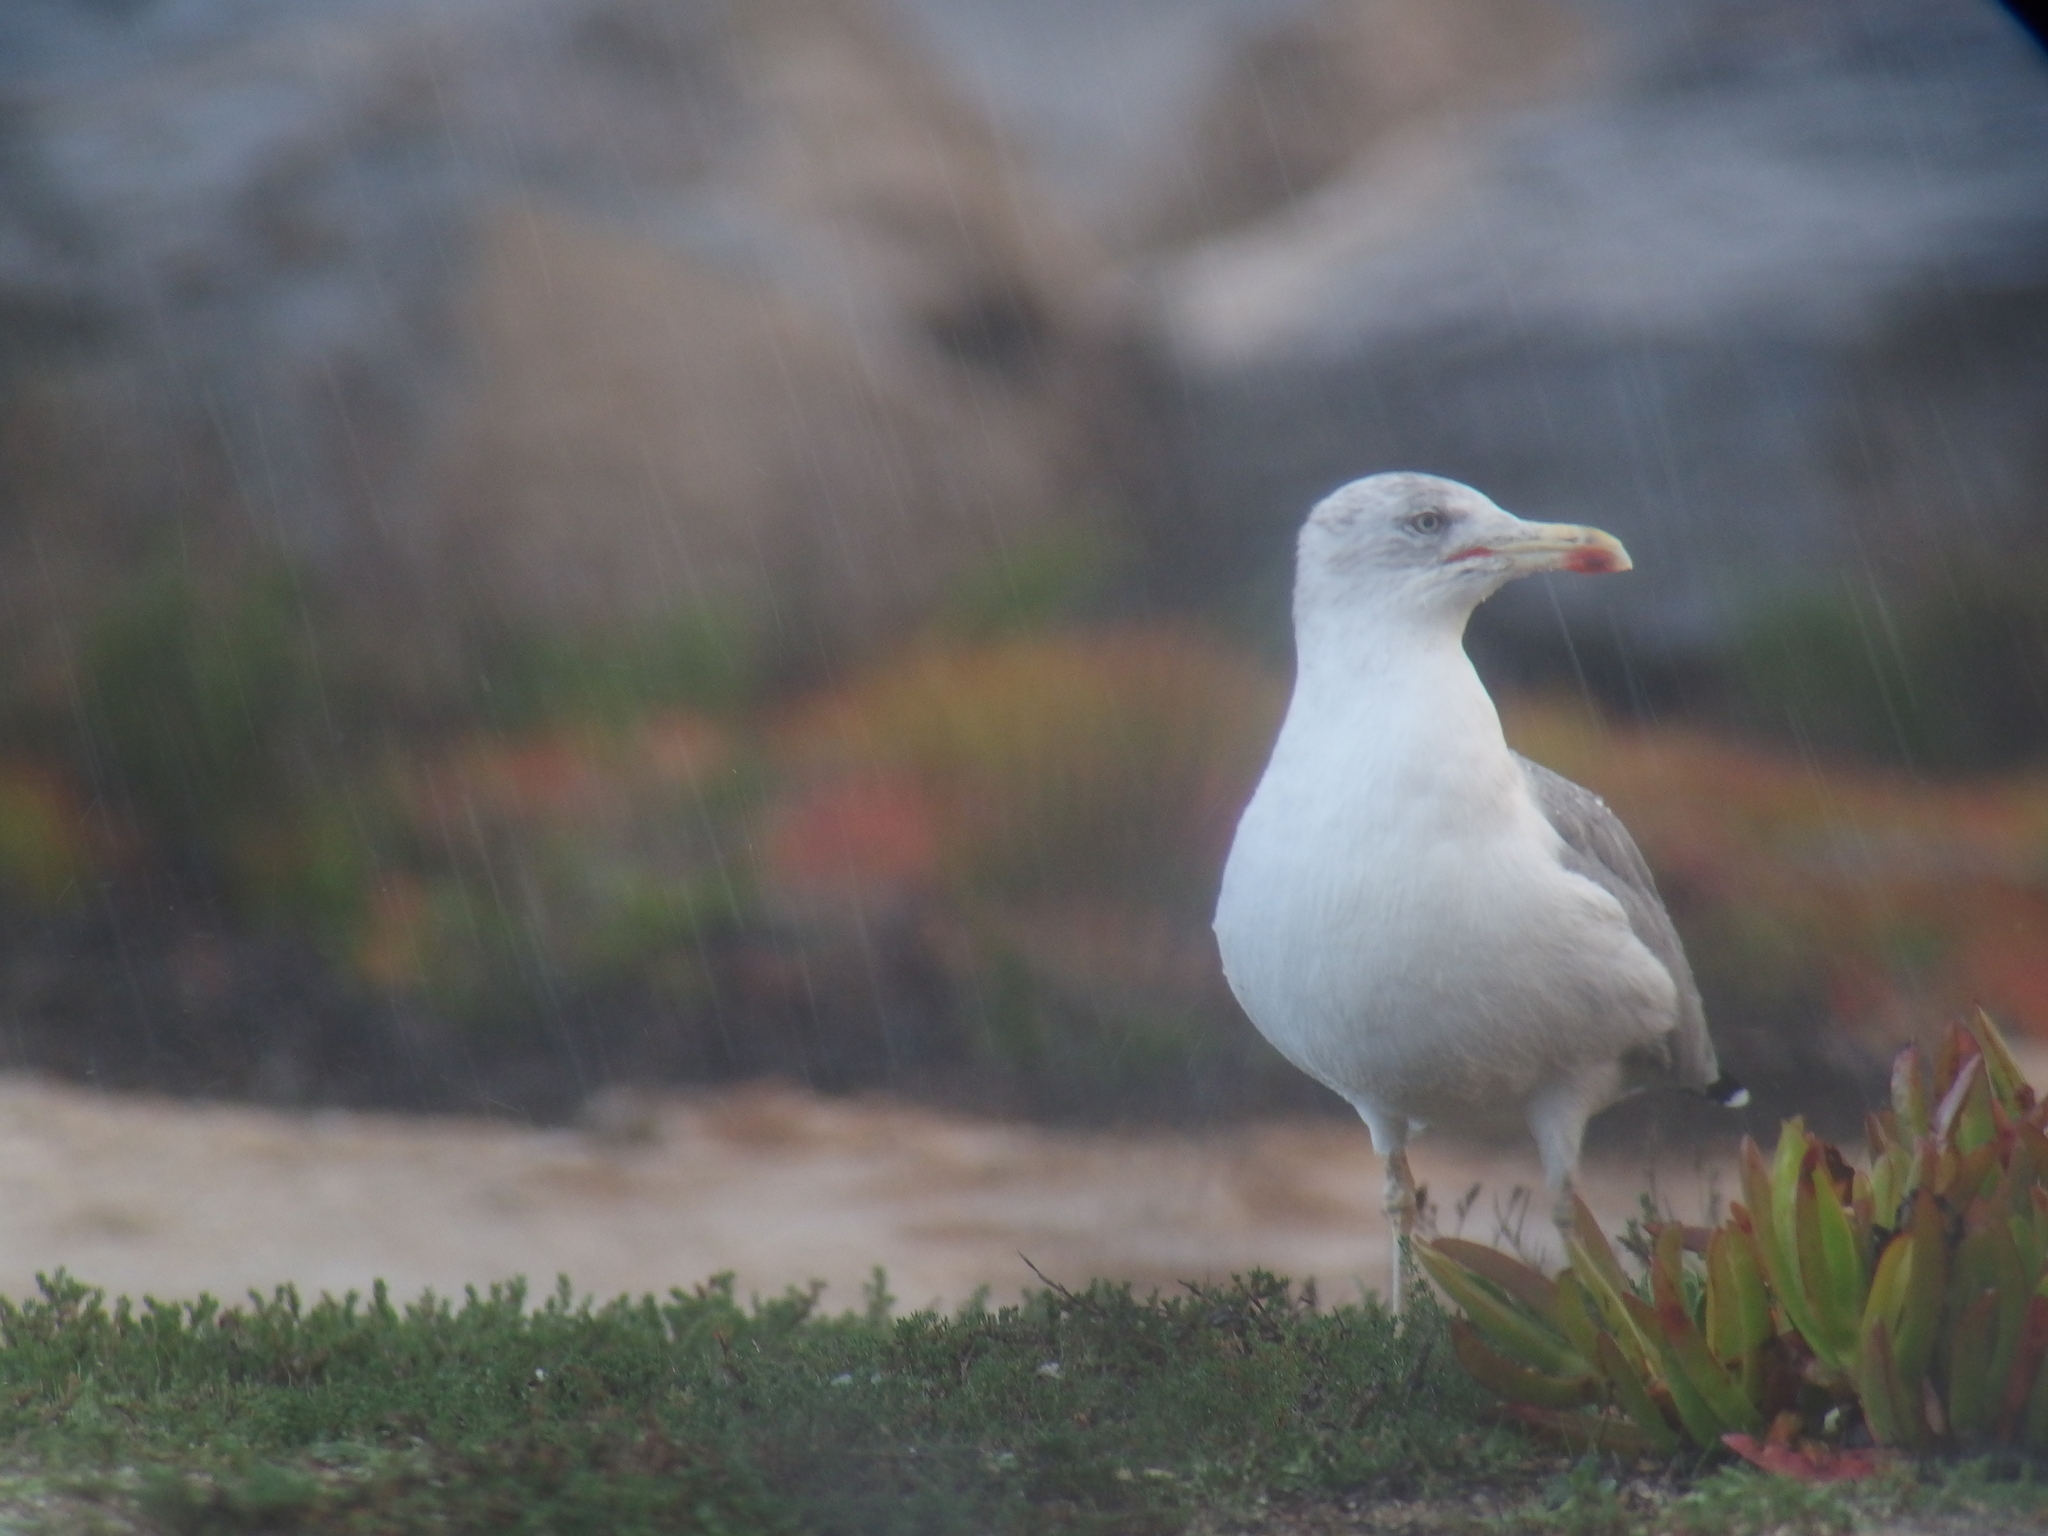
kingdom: Animalia
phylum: Chordata
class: Aves
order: Charadriiformes
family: Laridae
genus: Larus
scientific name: Larus michahellis
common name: Yellow-legged gull
